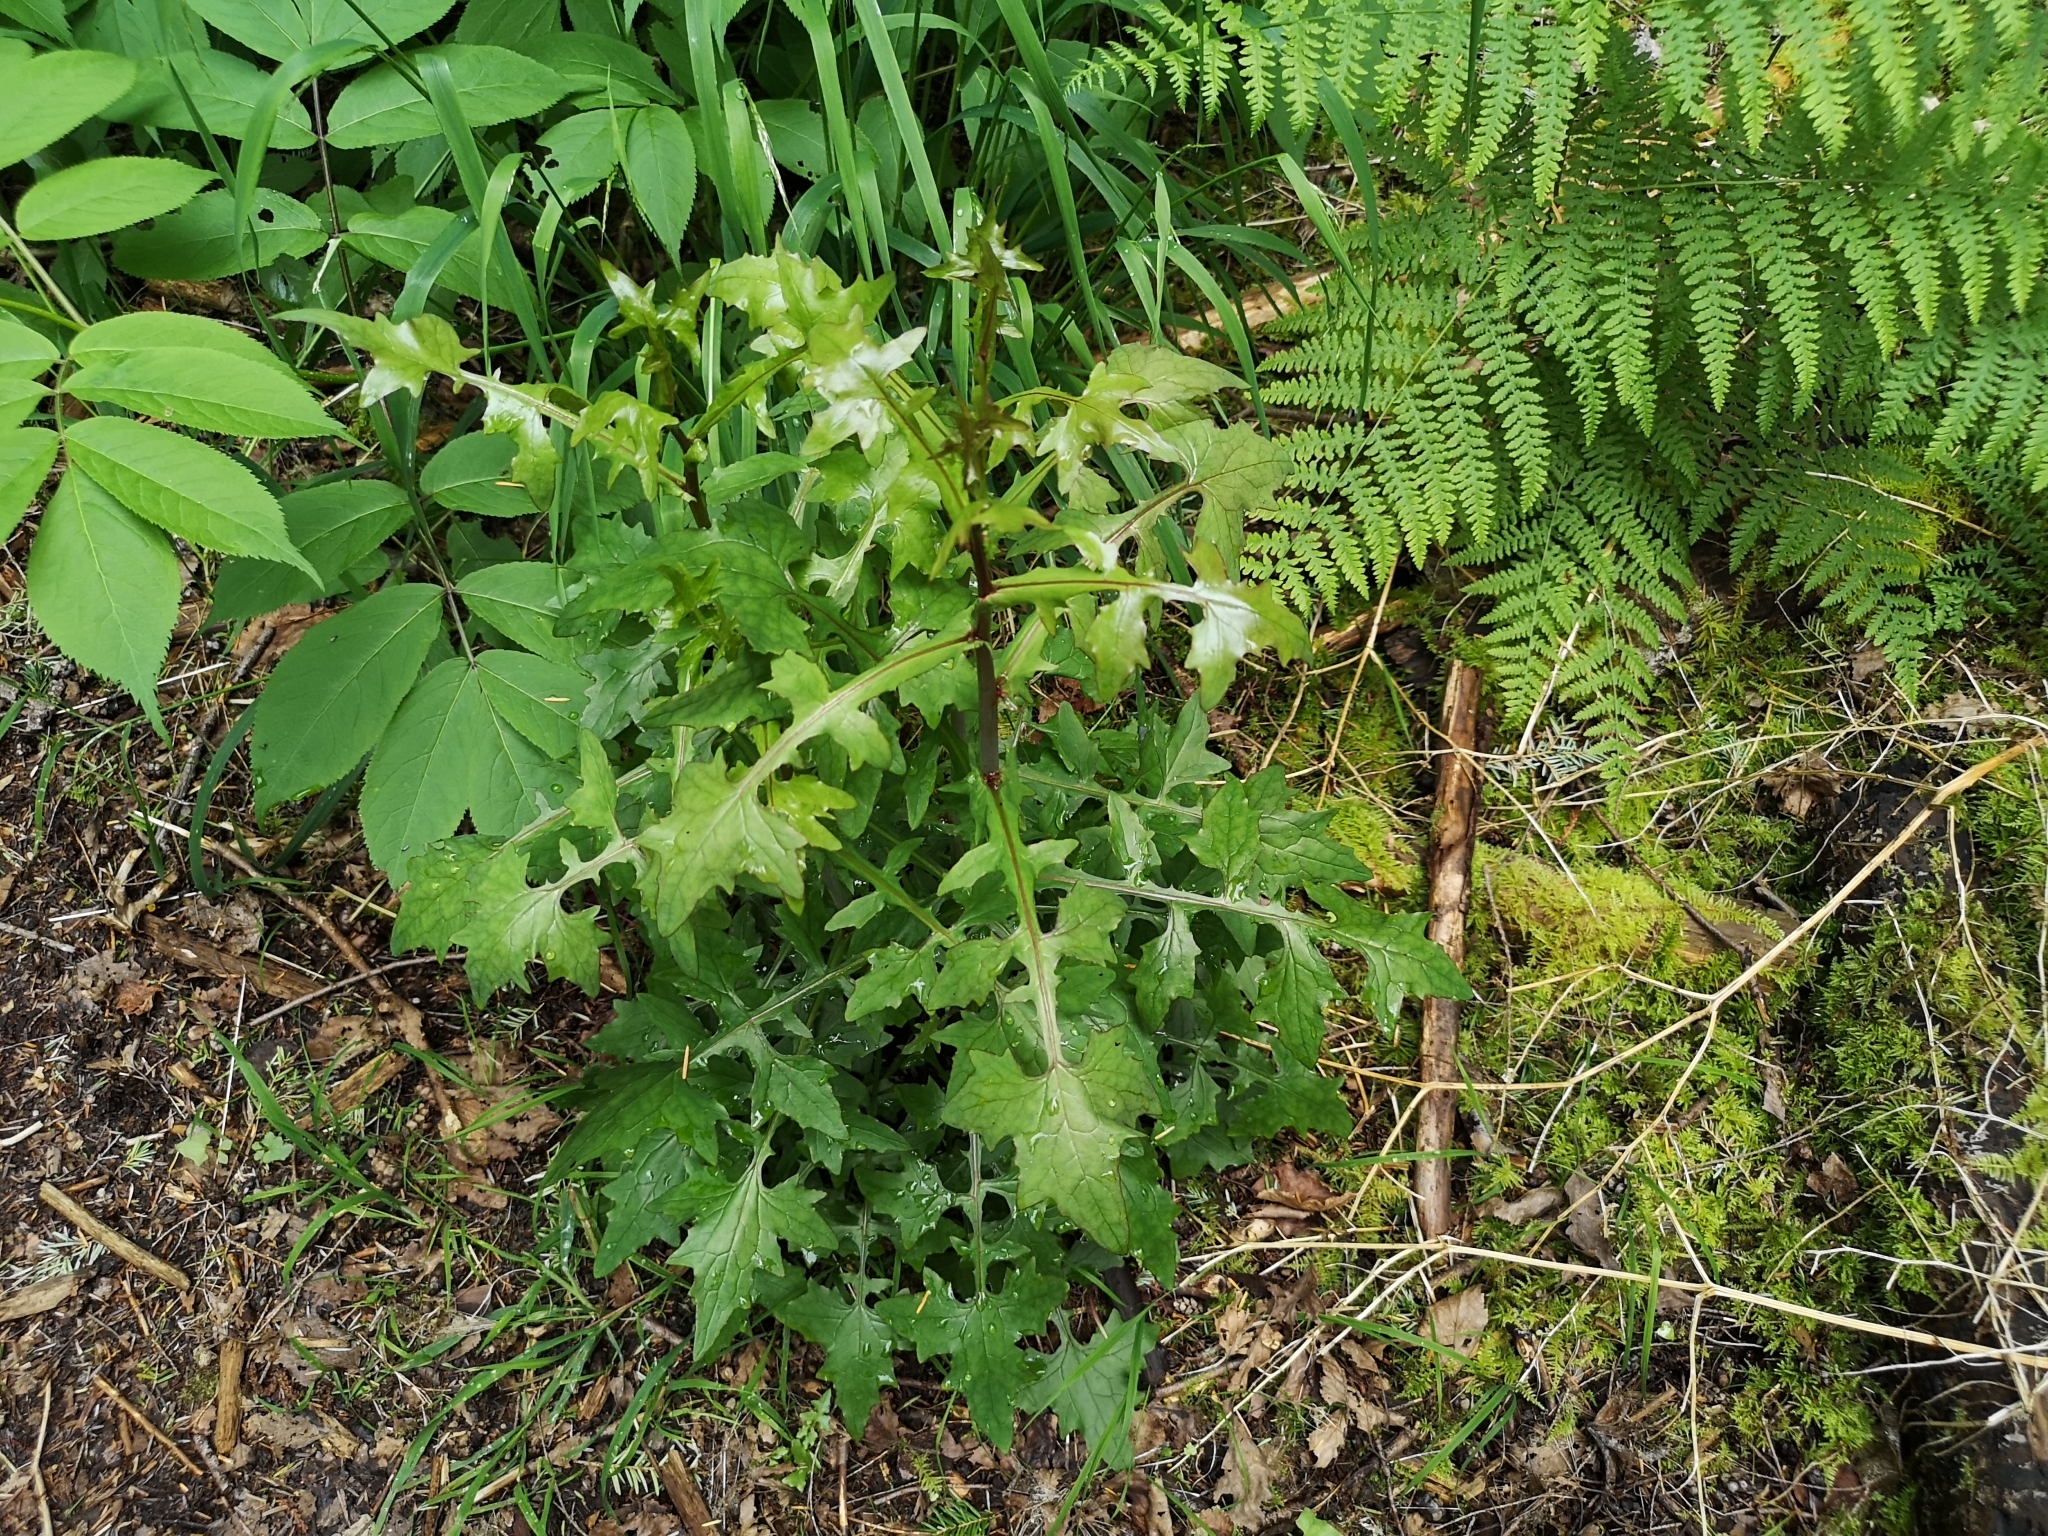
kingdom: Plantae
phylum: Tracheophyta
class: Magnoliopsida
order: Asterales
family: Asteraceae
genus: Mycelis
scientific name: Mycelis muralis
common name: Wall lettuce
